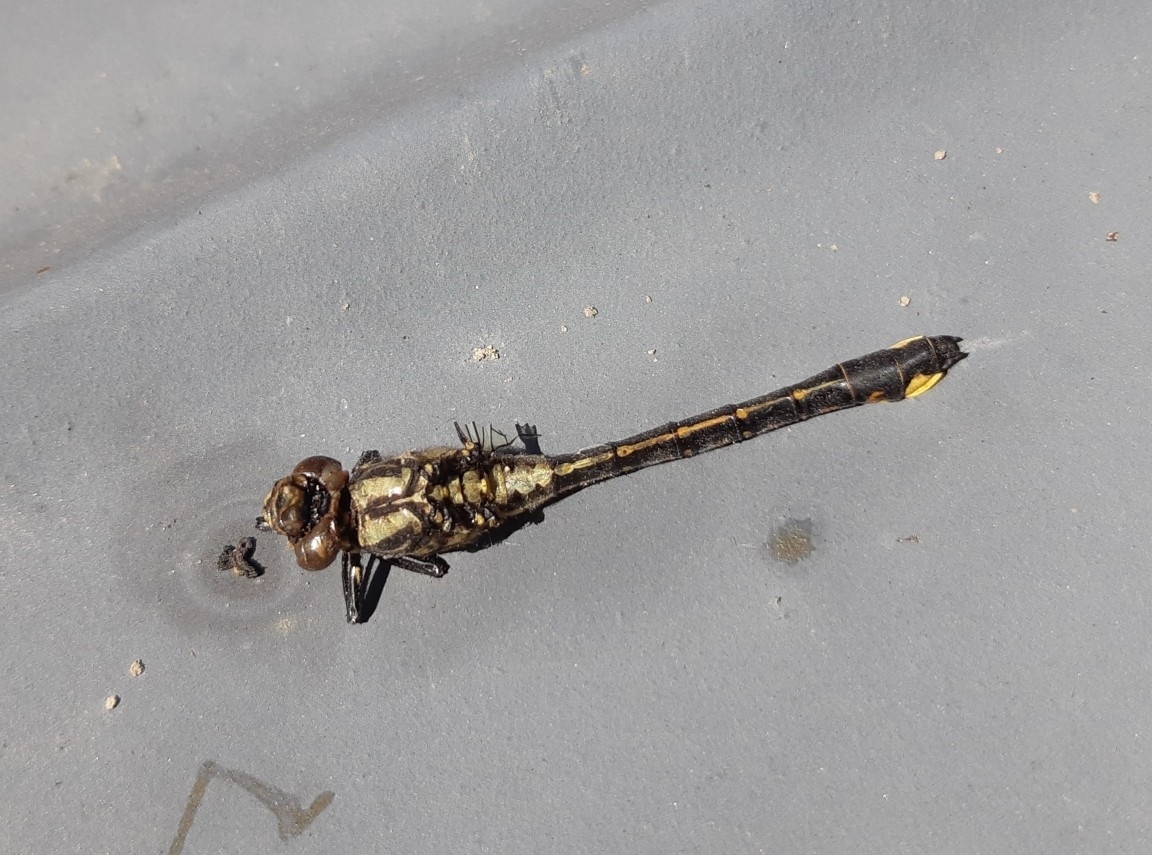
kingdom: Animalia
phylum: Arthropoda
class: Insecta
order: Odonata
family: Gomphidae
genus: Gomphus
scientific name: Gomphus vulgatissimus
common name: Club-tailed dragonfly
